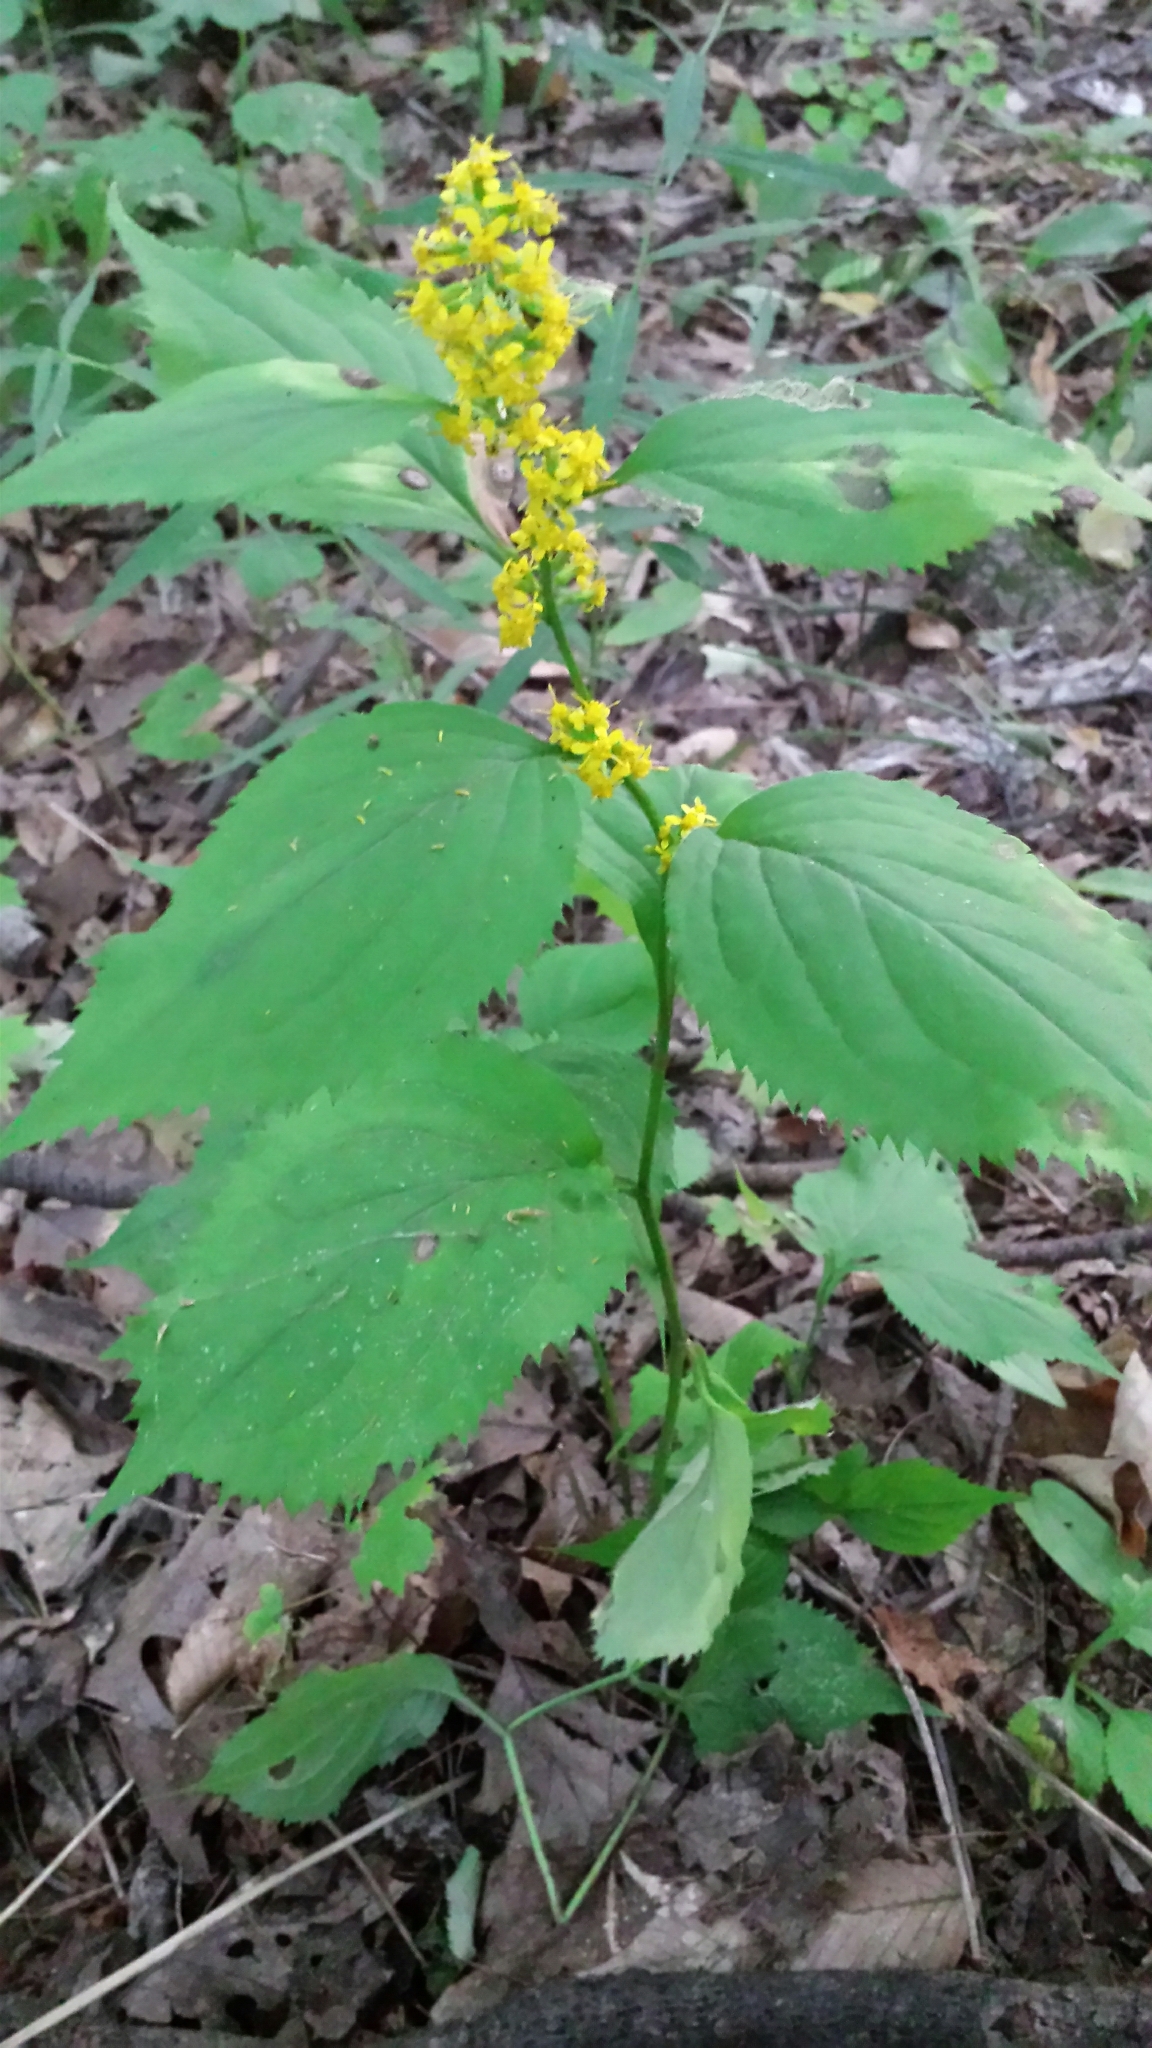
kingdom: Plantae
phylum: Tracheophyta
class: Magnoliopsida
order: Asterales
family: Asteraceae
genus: Solidago
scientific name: Solidago flexicaulis
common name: Zig-zag goldenrod
